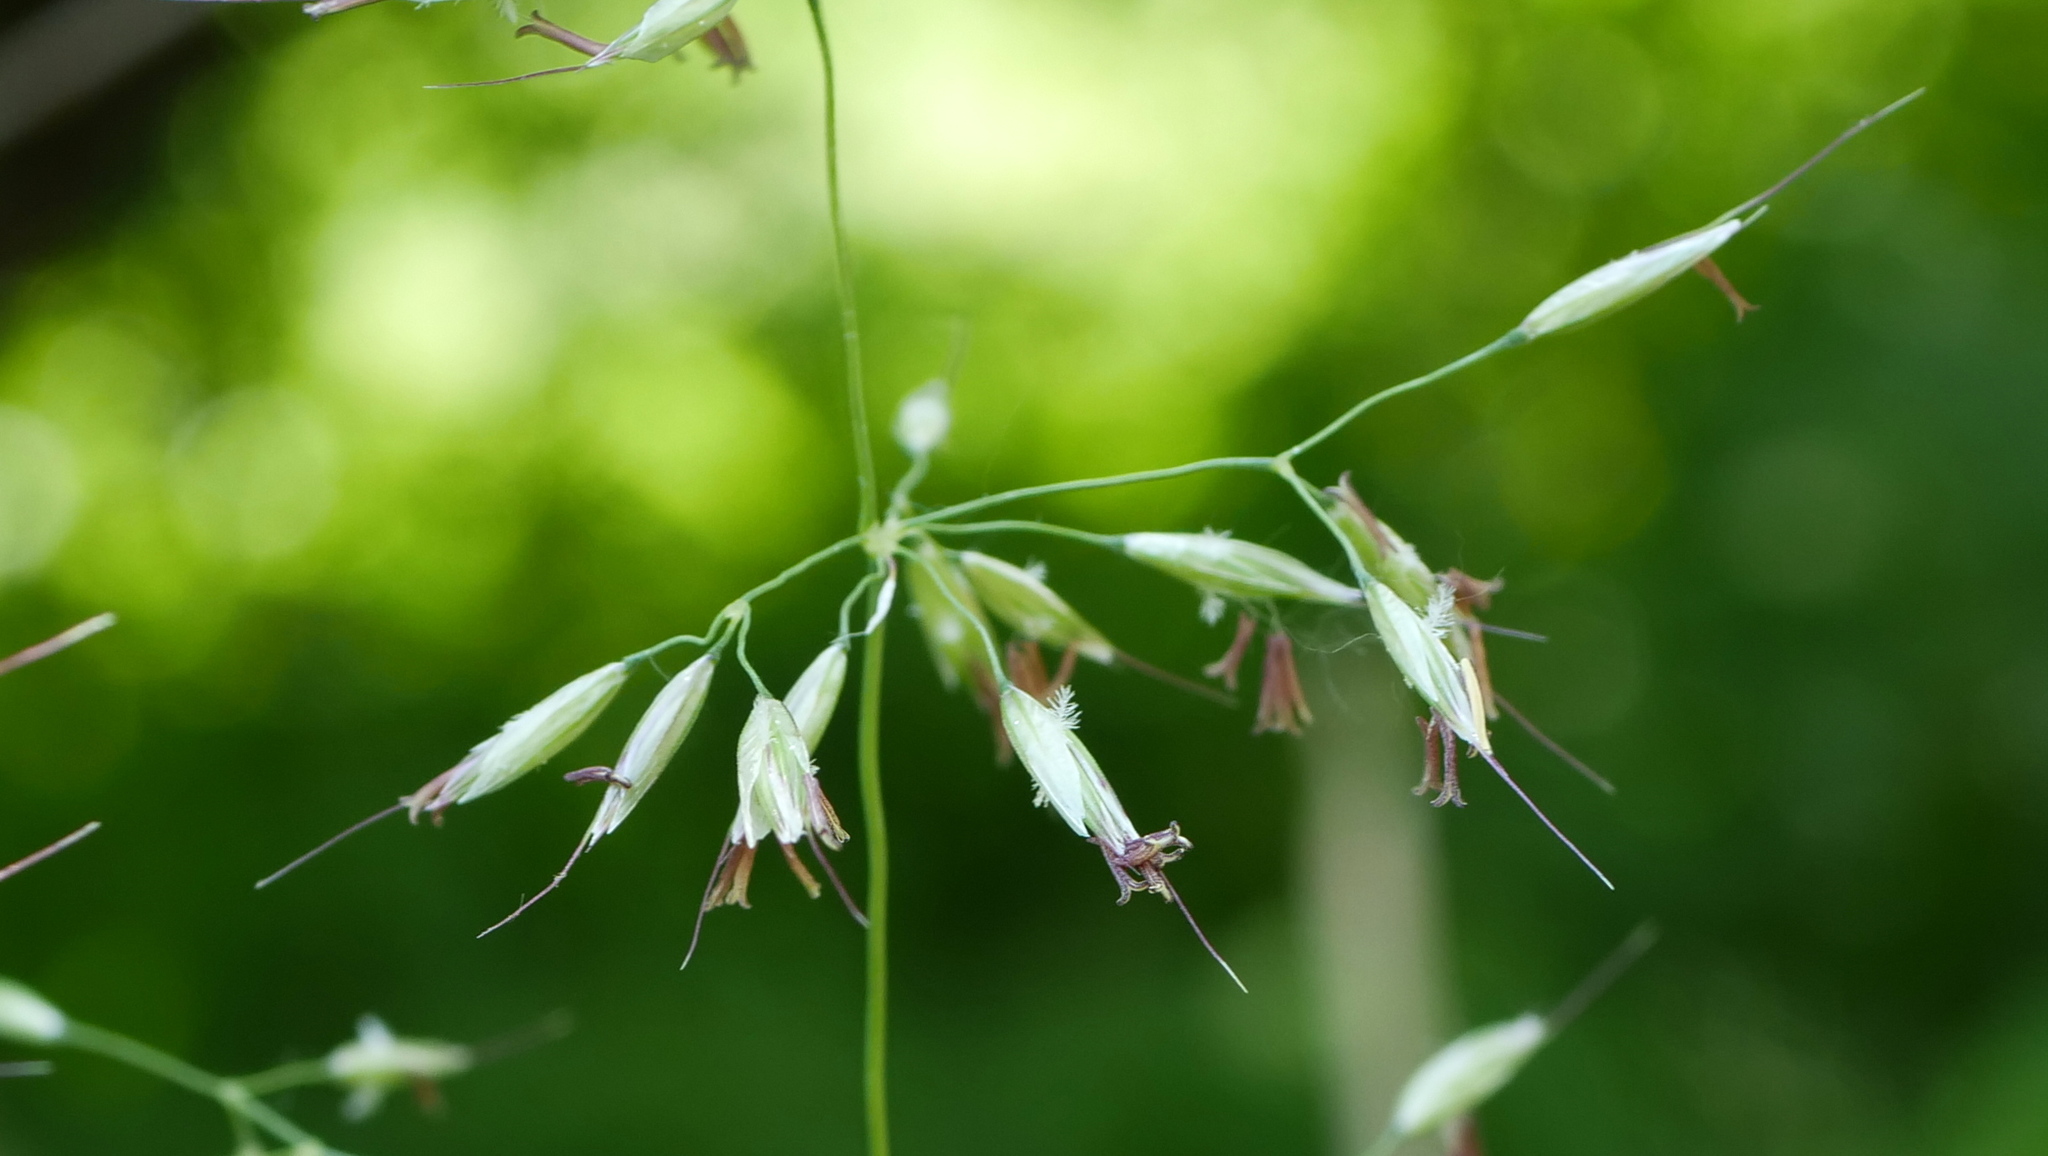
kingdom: Plantae
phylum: Tracheophyta
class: Liliopsida
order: Poales
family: Poaceae
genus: Arrhenatherum
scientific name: Arrhenatherum elatius
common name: Tall oatgrass
